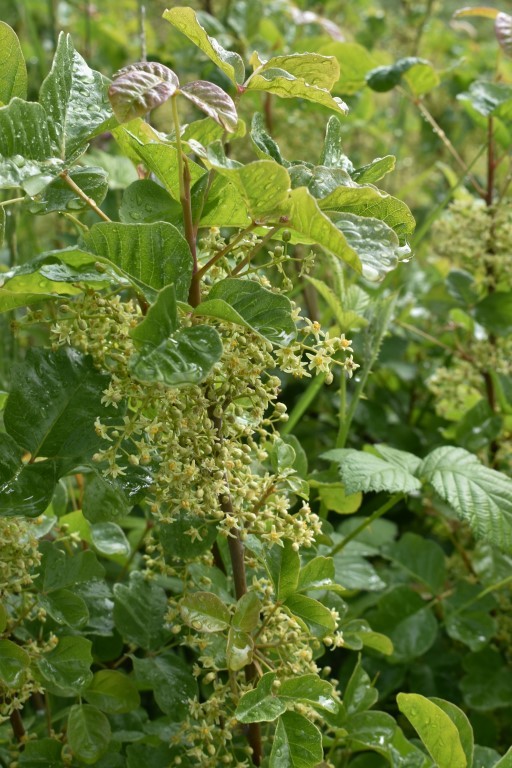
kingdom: Plantae
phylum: Tracheophyta
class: Magnoliopsida
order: Sapindales
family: Anacardiaceae
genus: Toxicodendron
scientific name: Toxicodendron diversilobum
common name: Pacific poison-oak
